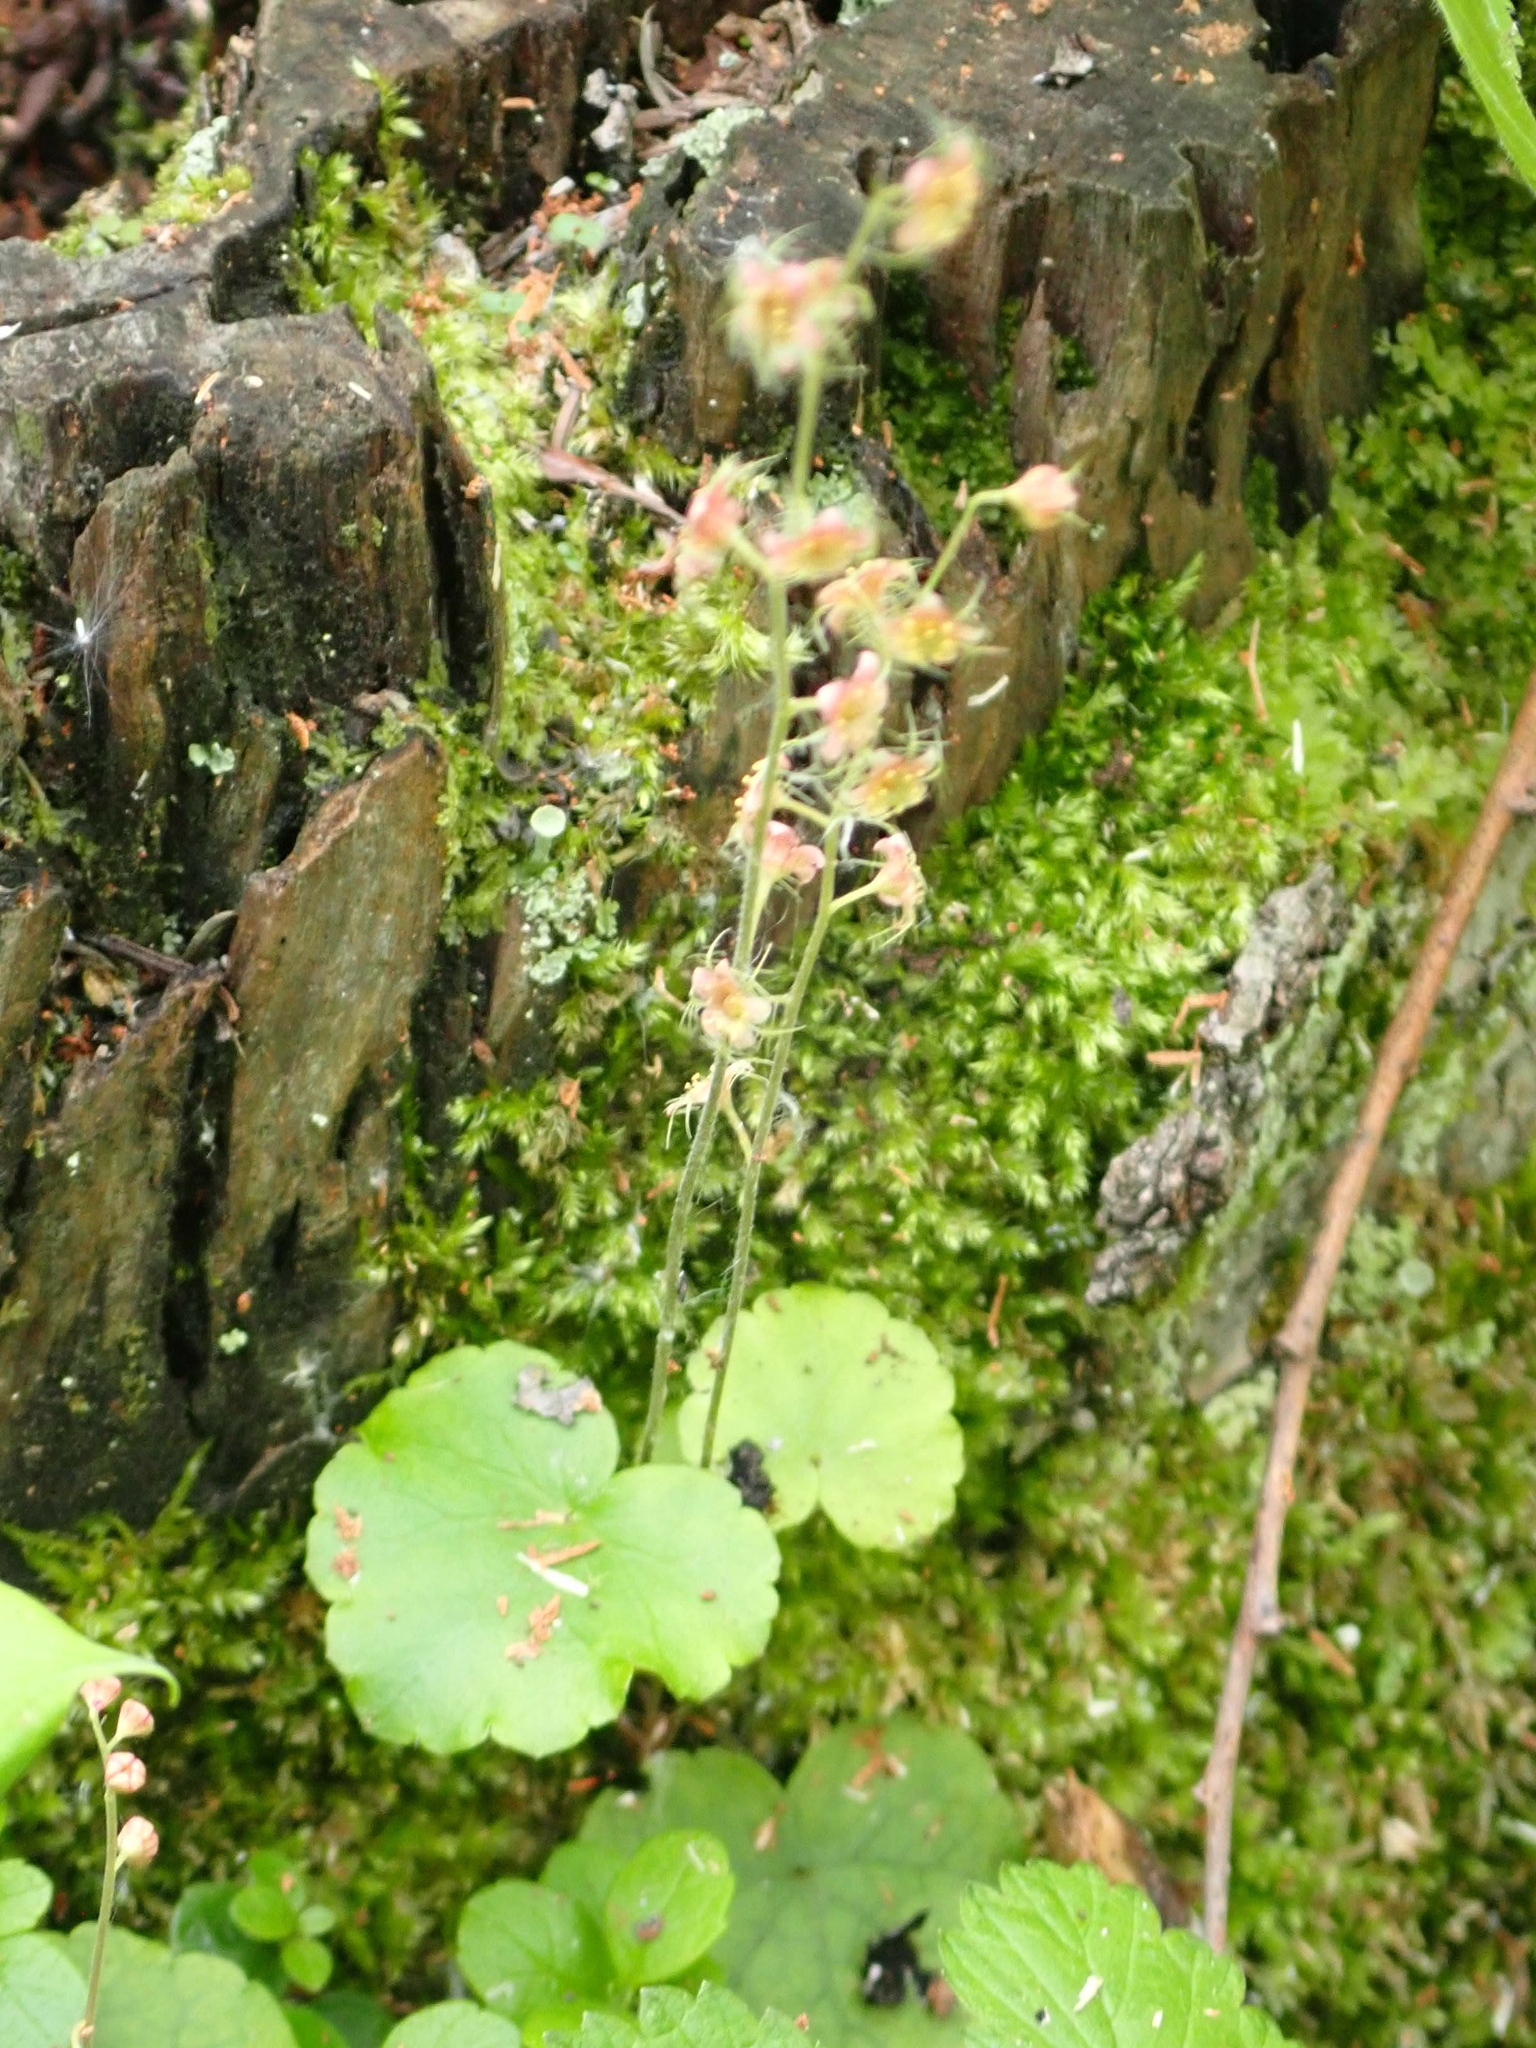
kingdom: Plantae
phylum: Tracheophyta
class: Magnoliopsida
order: Saxifragales
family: Saxifragaceae
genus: Mitella
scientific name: Mitella nuda
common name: Bare-stemmed bishop's-cap
